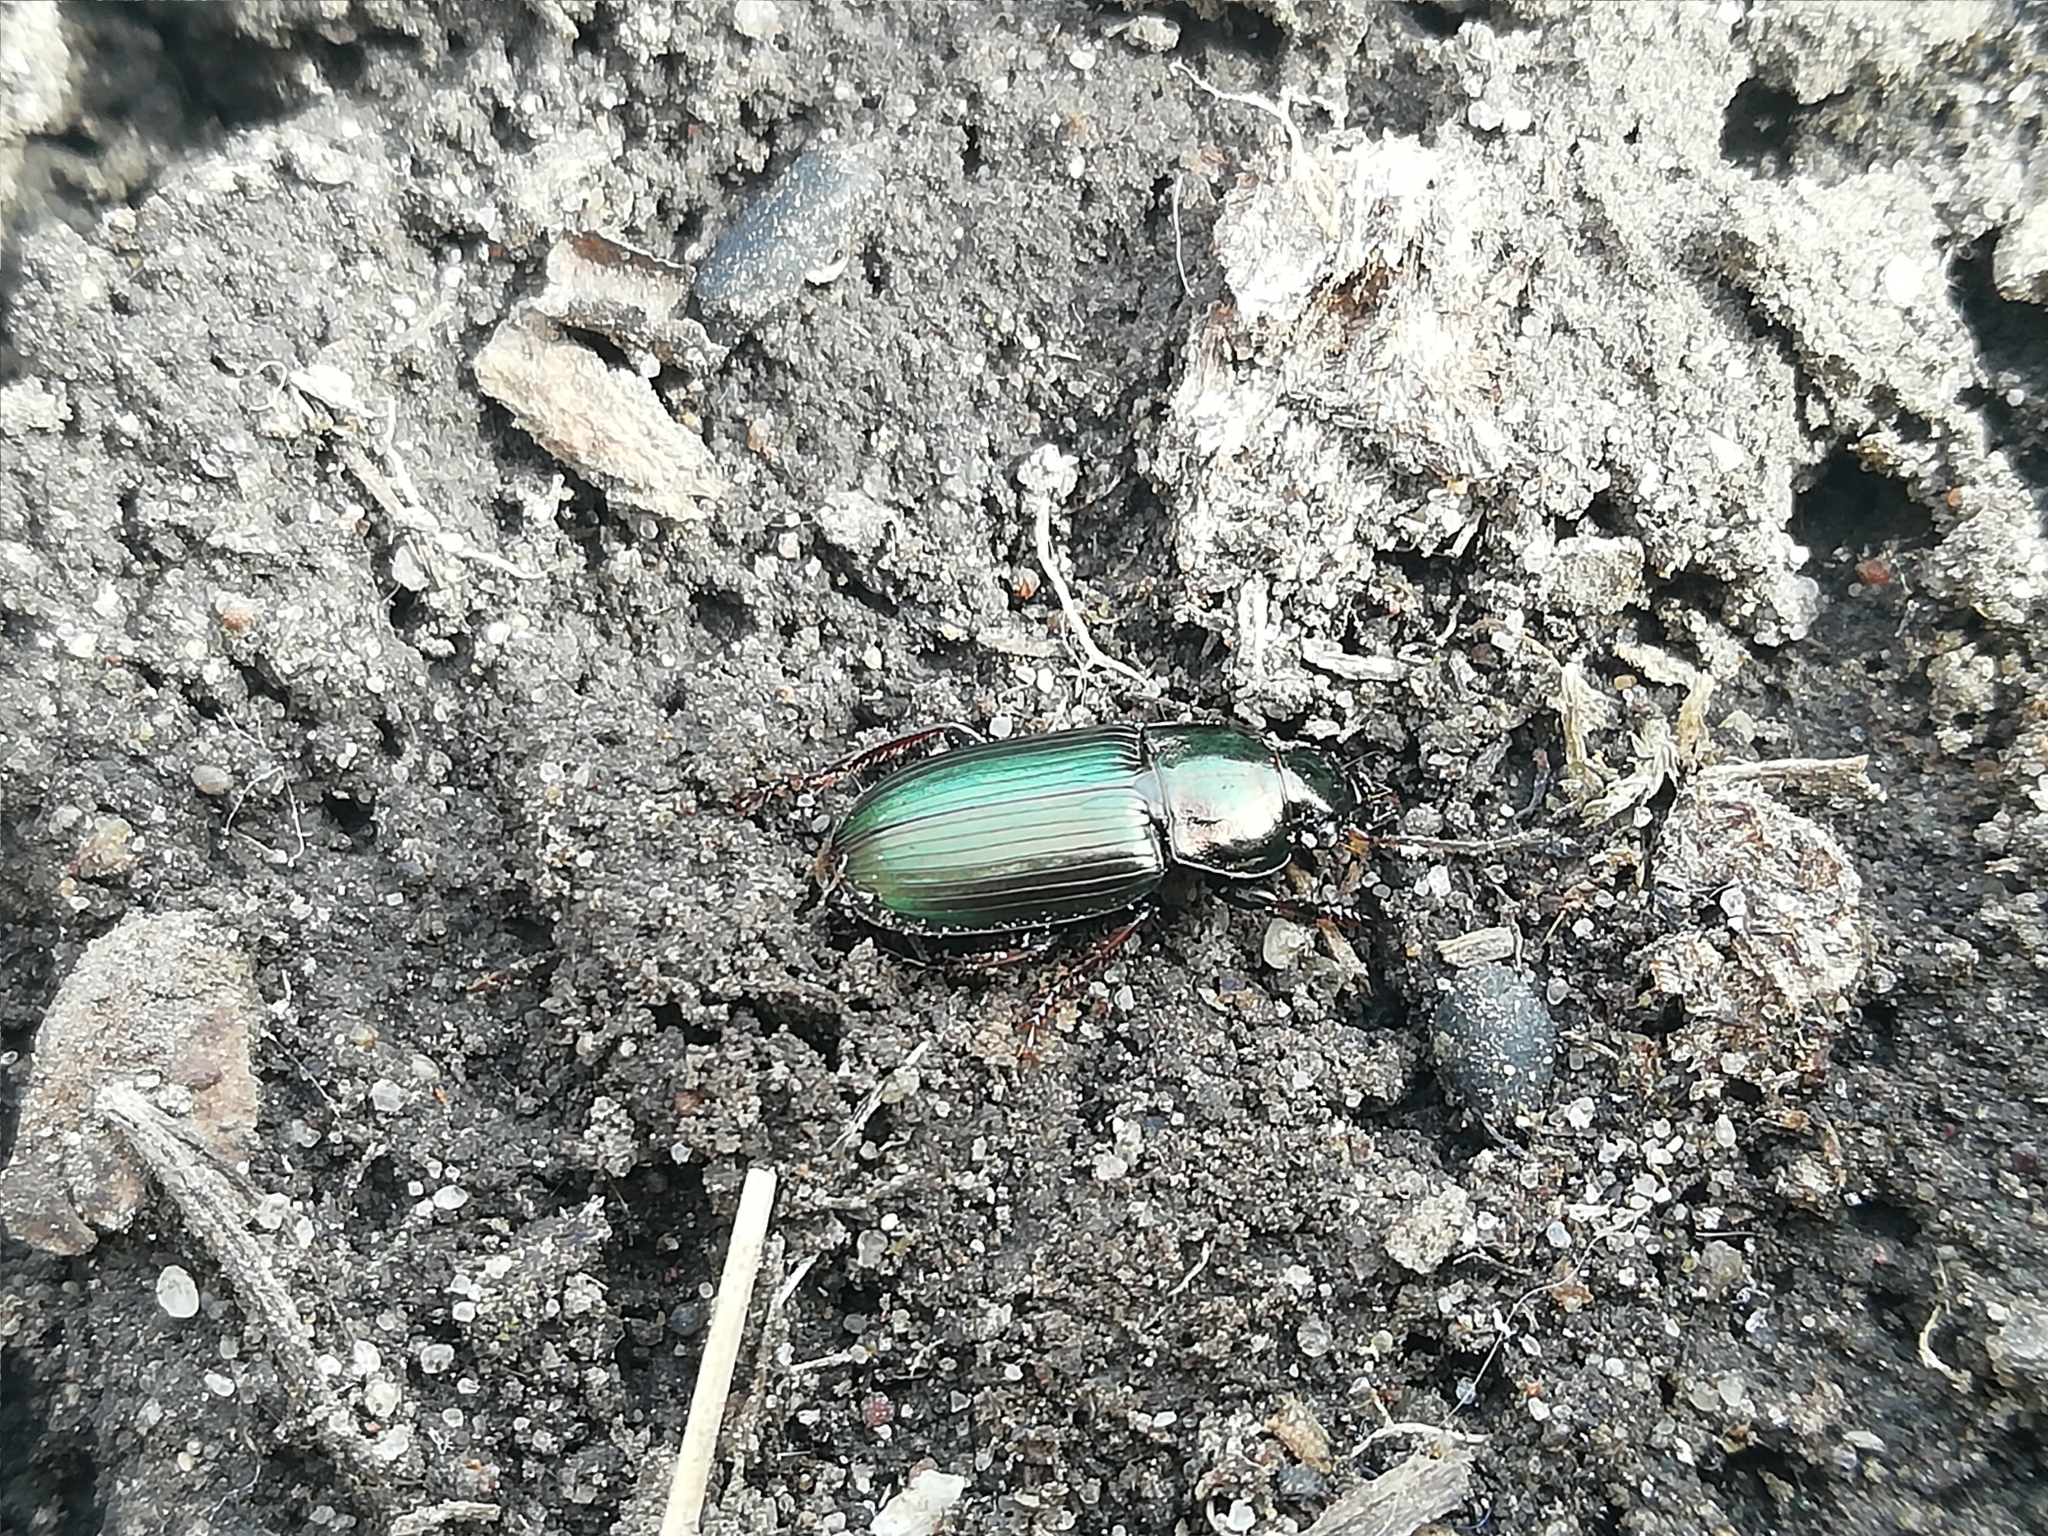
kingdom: Animalia
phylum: Arthropoda
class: Insecta
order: Coleoptera
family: Carabidae
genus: Harpalus
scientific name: Harpalus distinguendus
